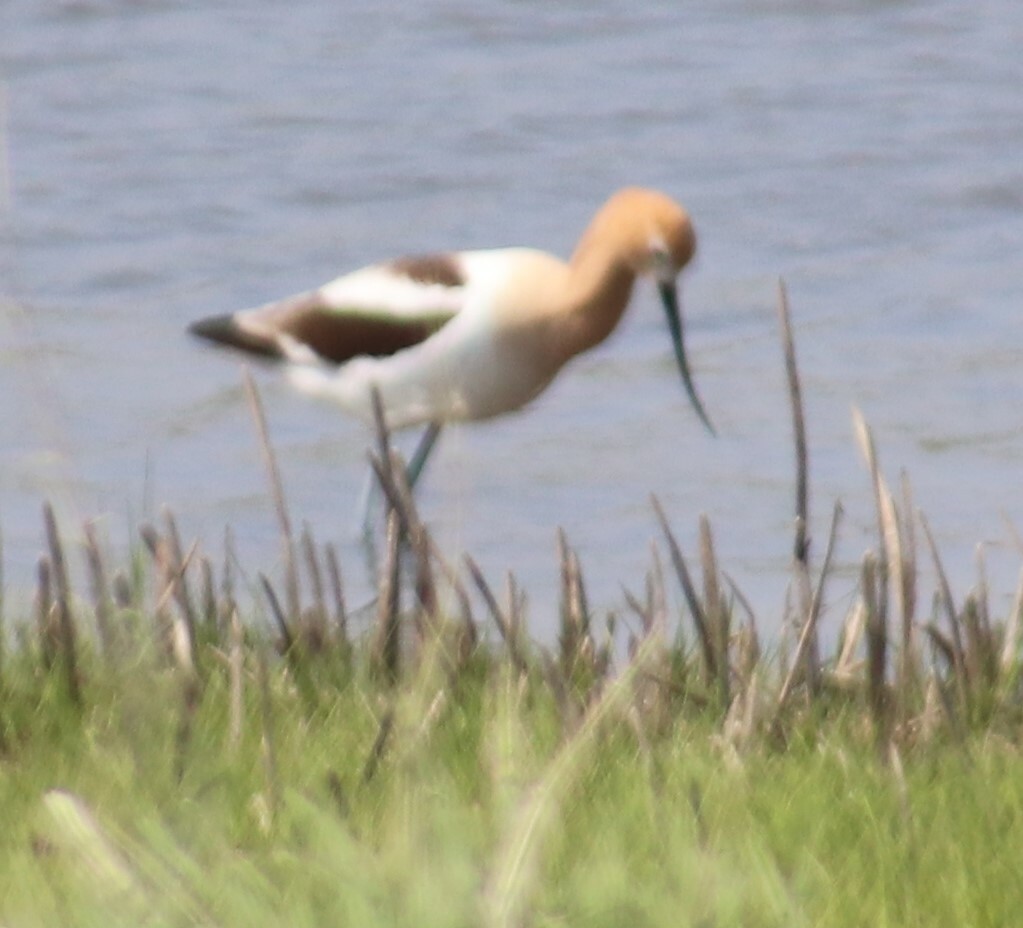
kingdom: Animalia
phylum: Chordata
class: Aves
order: Charadriiformes
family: Recurvirostridae
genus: Recurvirostra
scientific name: Recurvirostra americana
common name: American avocet
